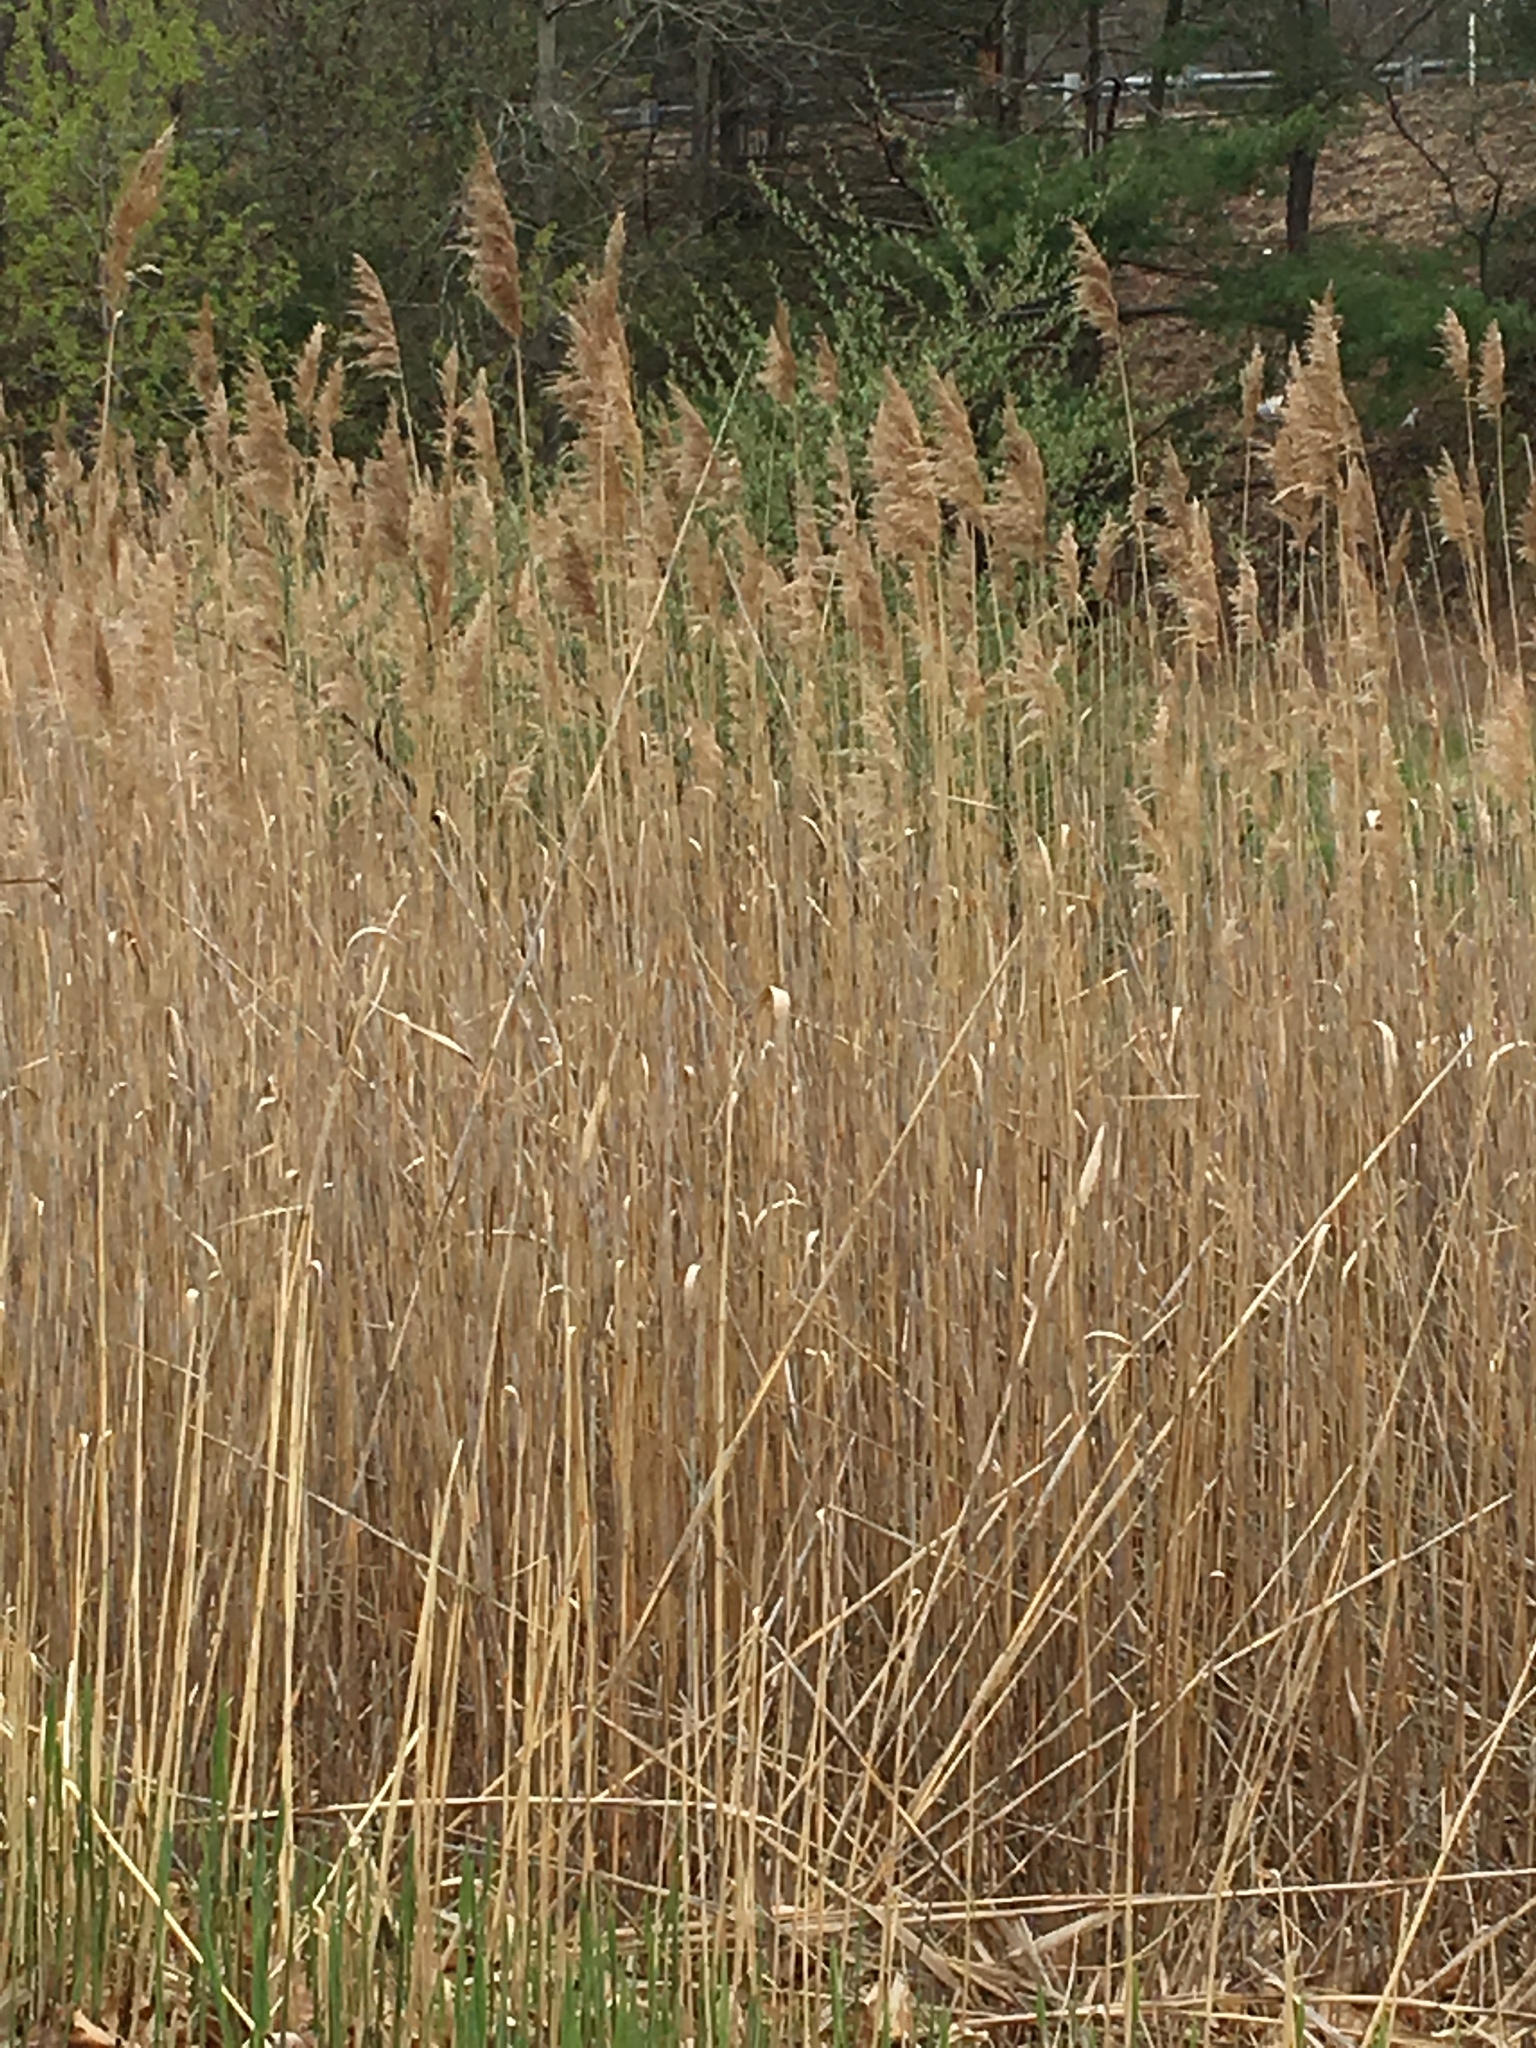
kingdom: Plantae
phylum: Tracheophyta
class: Liliopsida
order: Poales
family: Poaceae
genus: Phragmites
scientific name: Phragmites australis
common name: Common reed
